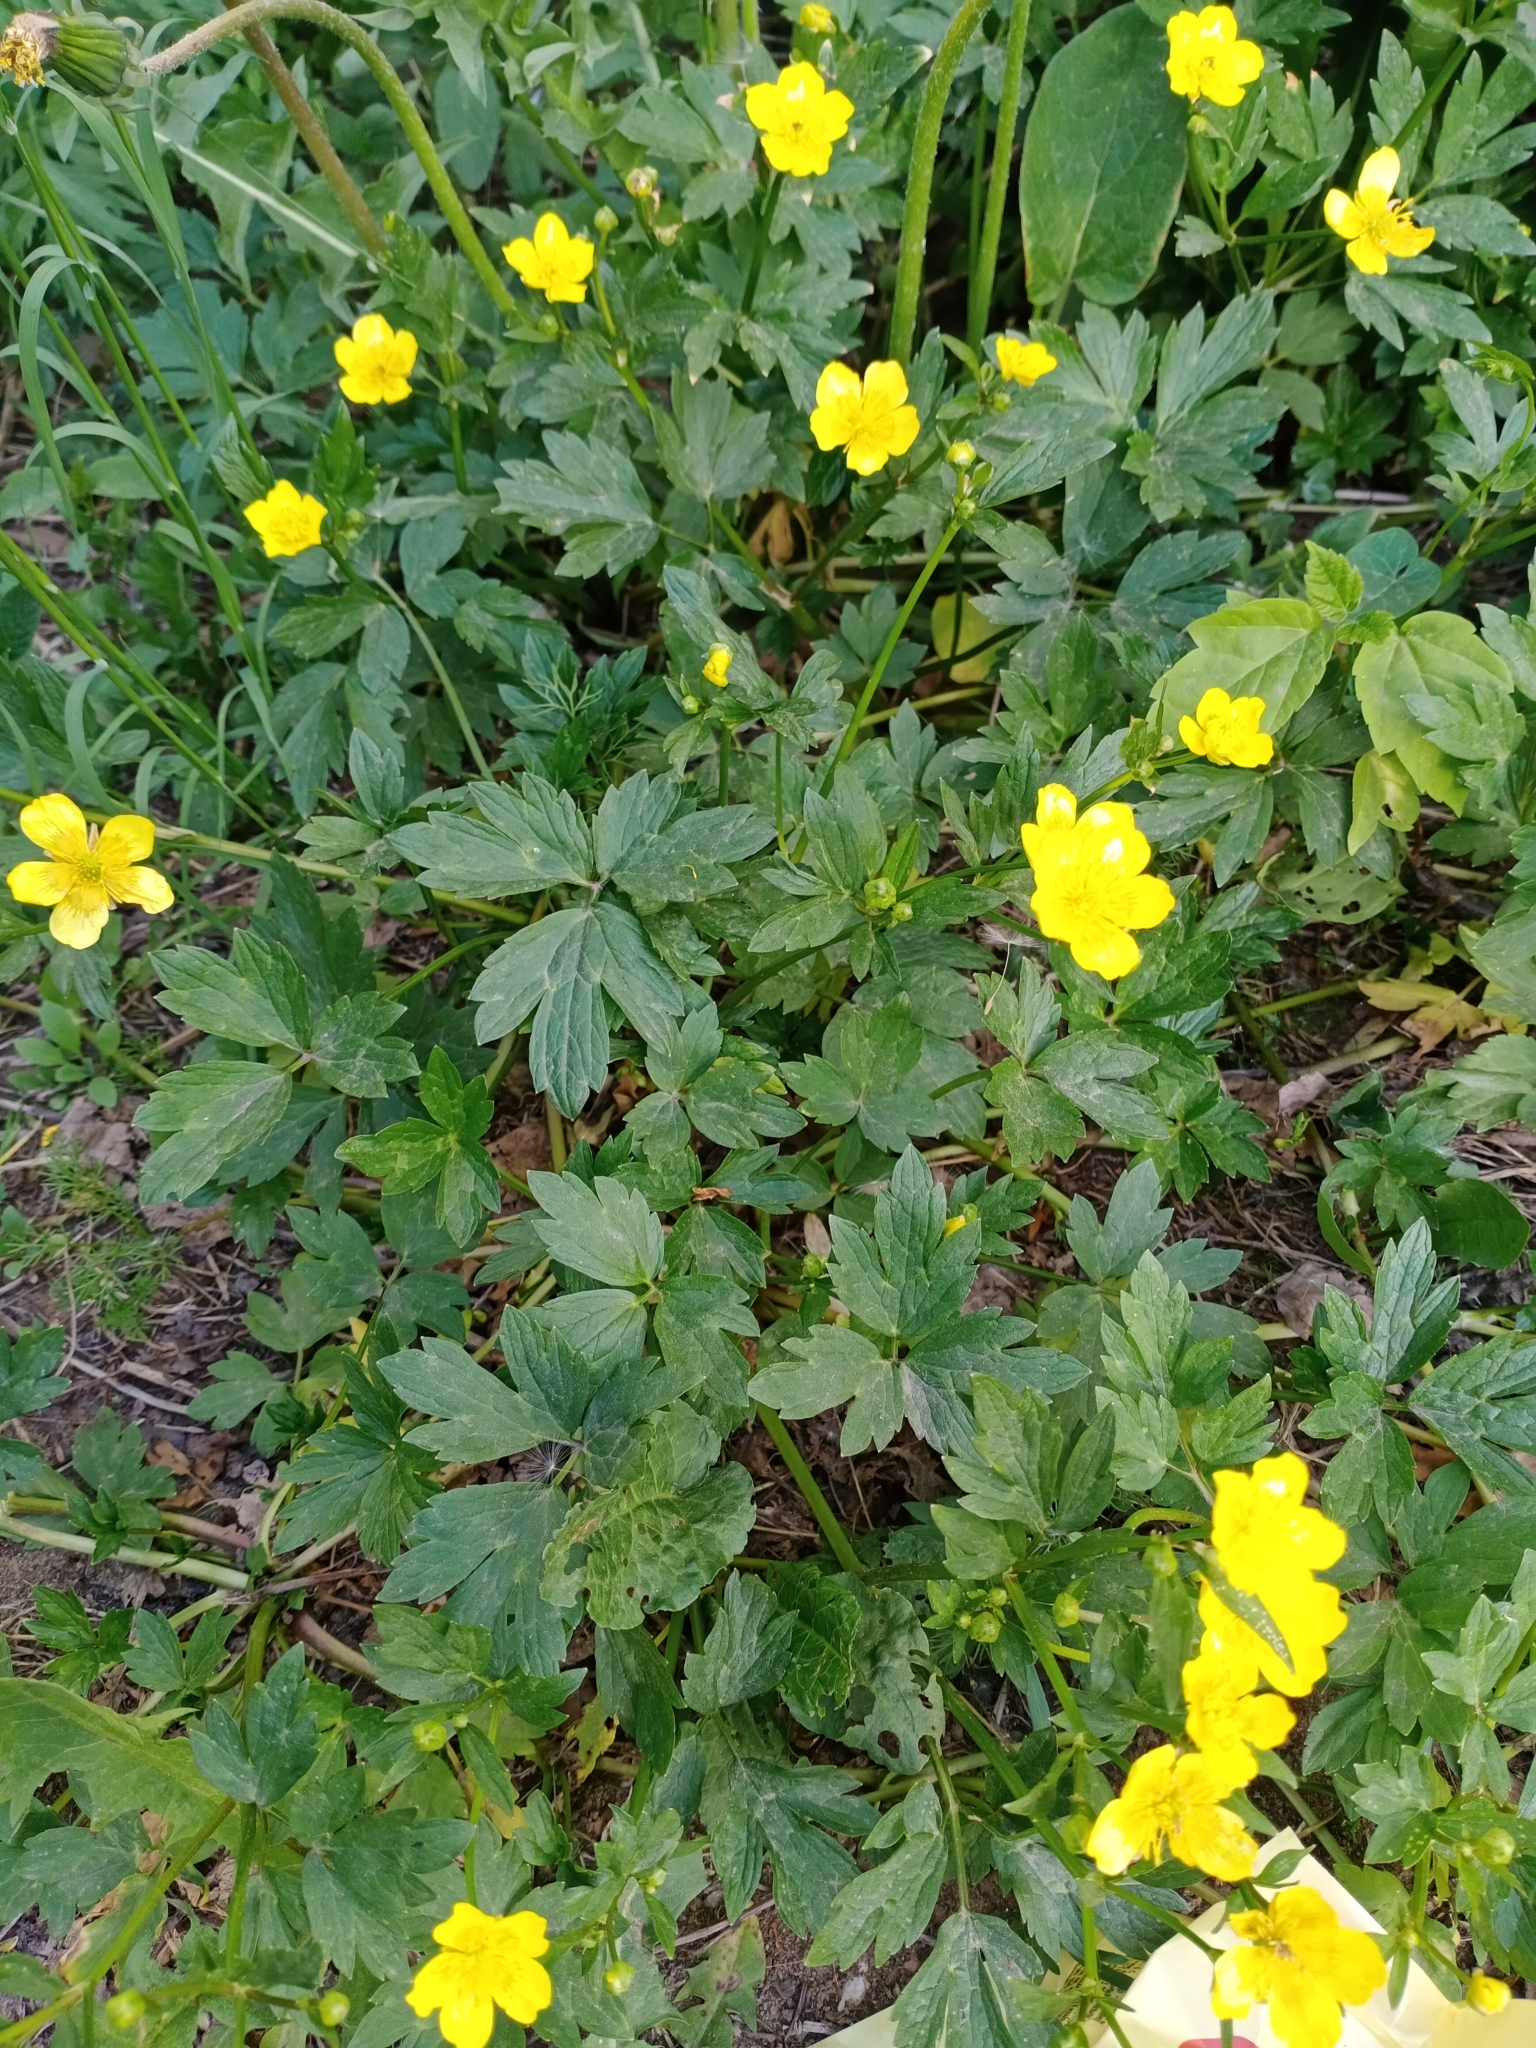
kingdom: Plantae
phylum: Tracheophyta
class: Magnoliopsida
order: Ranunculales
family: Ranunculaceae
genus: Ranunculus
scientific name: Ranunculus repens
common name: Creeping buttercup
